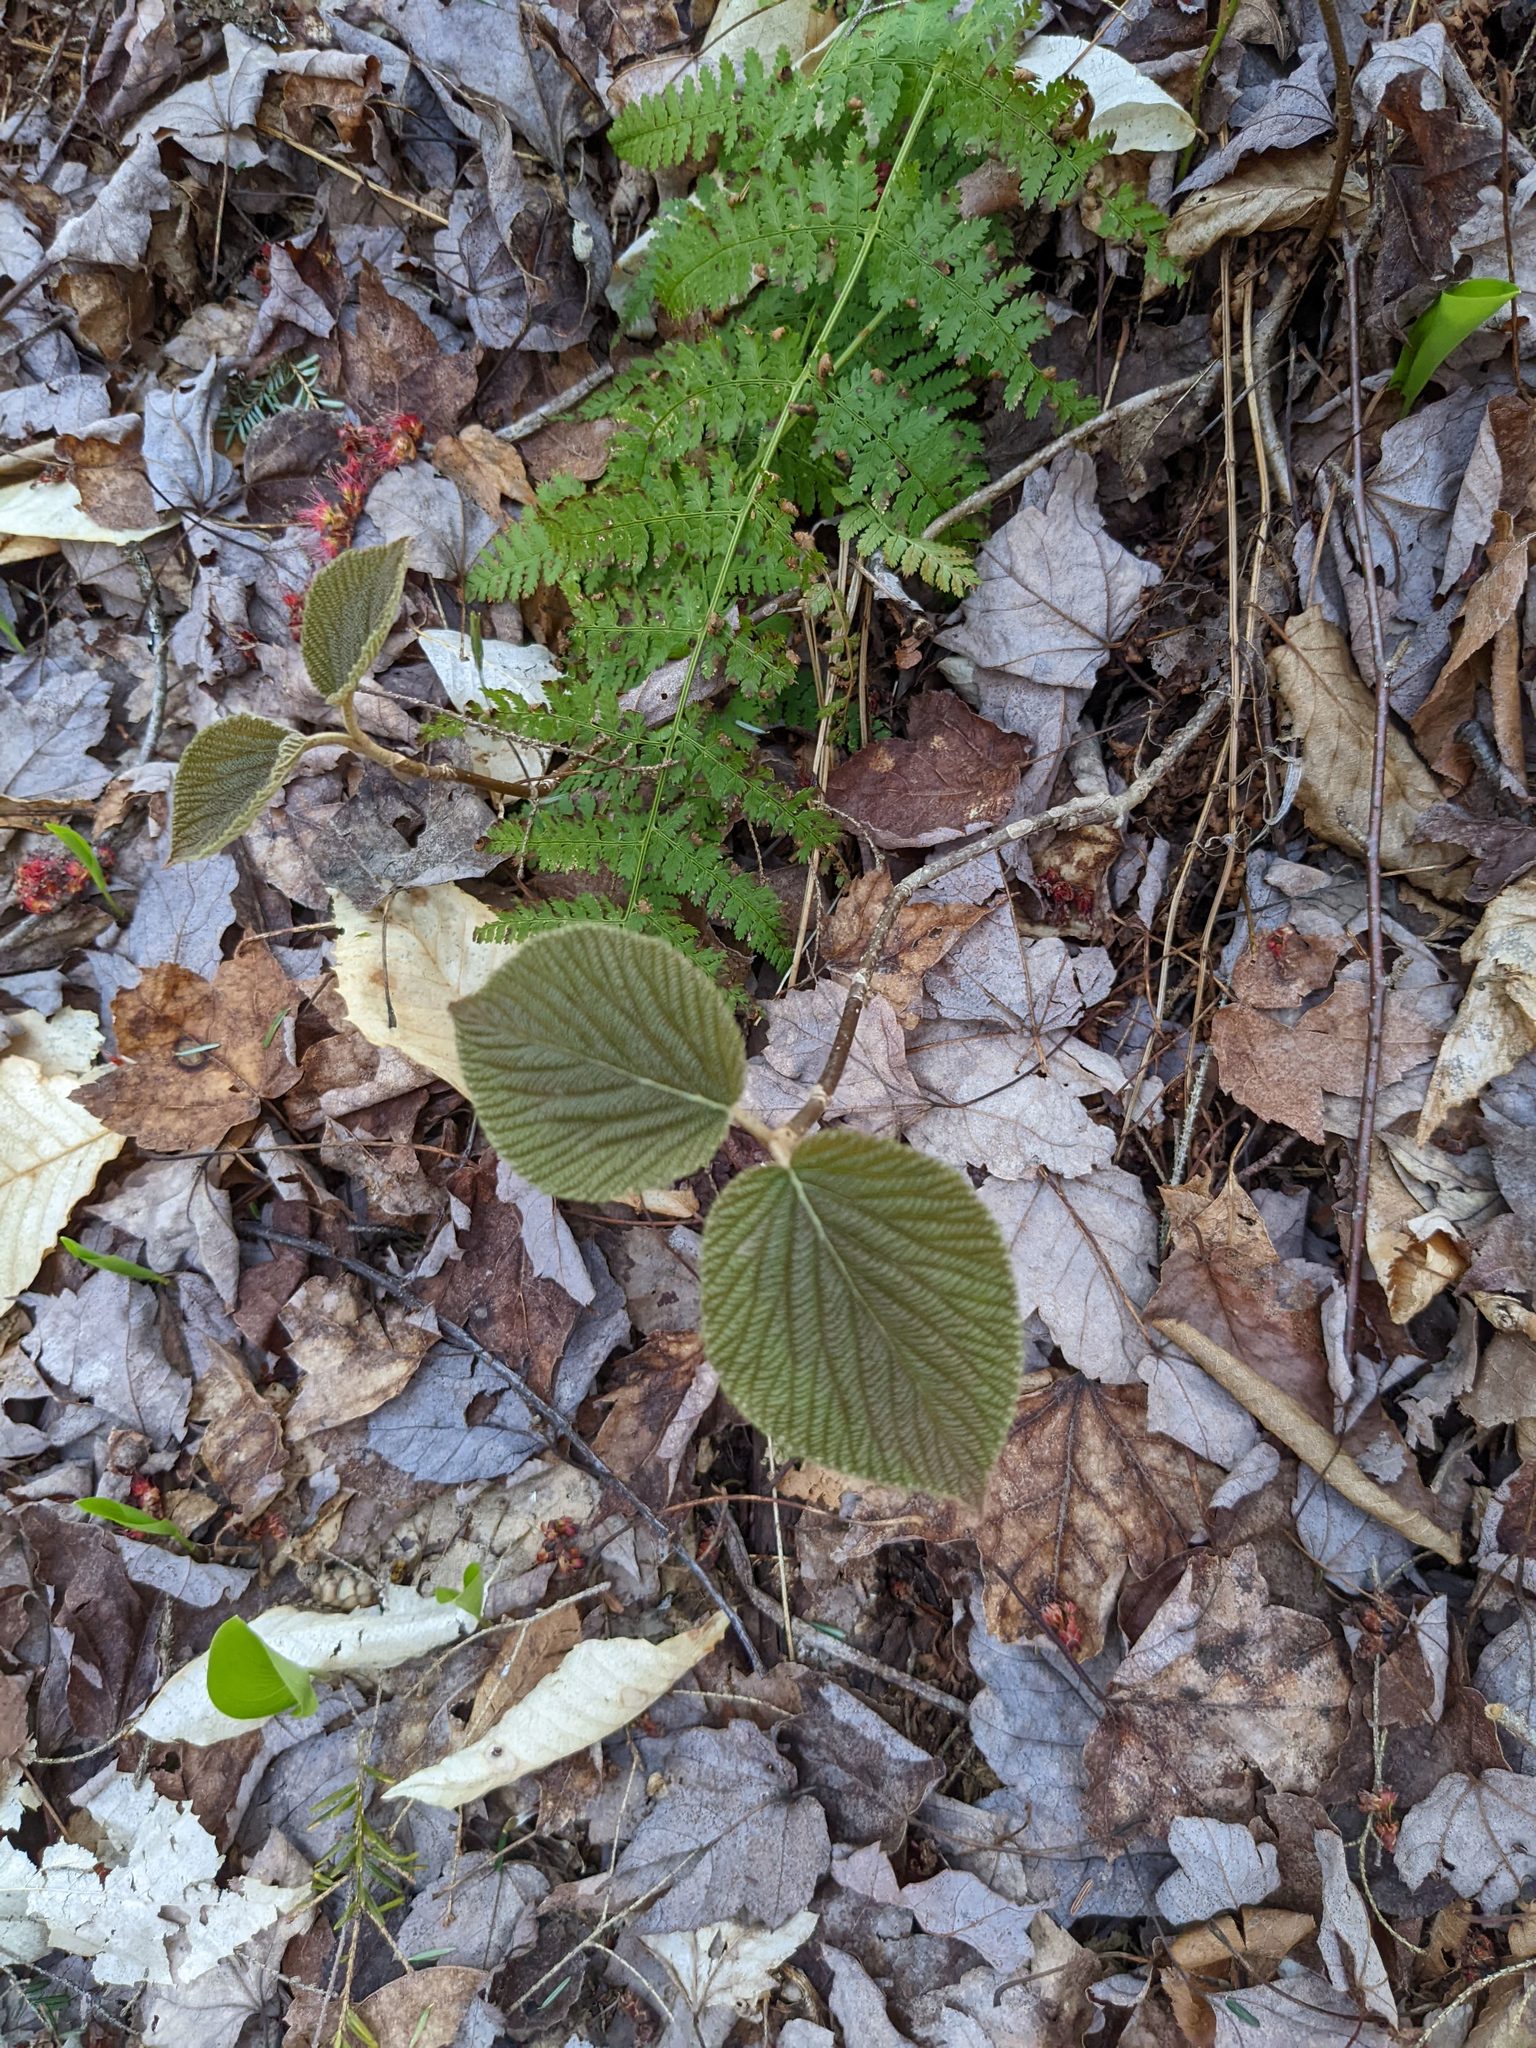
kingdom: Plantae
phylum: Tracheophyta
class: Magnoliopsida
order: Dipsacales
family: Viburnaceae
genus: Viburnum
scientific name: Viburnum lantanoides
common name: Hobblebush
